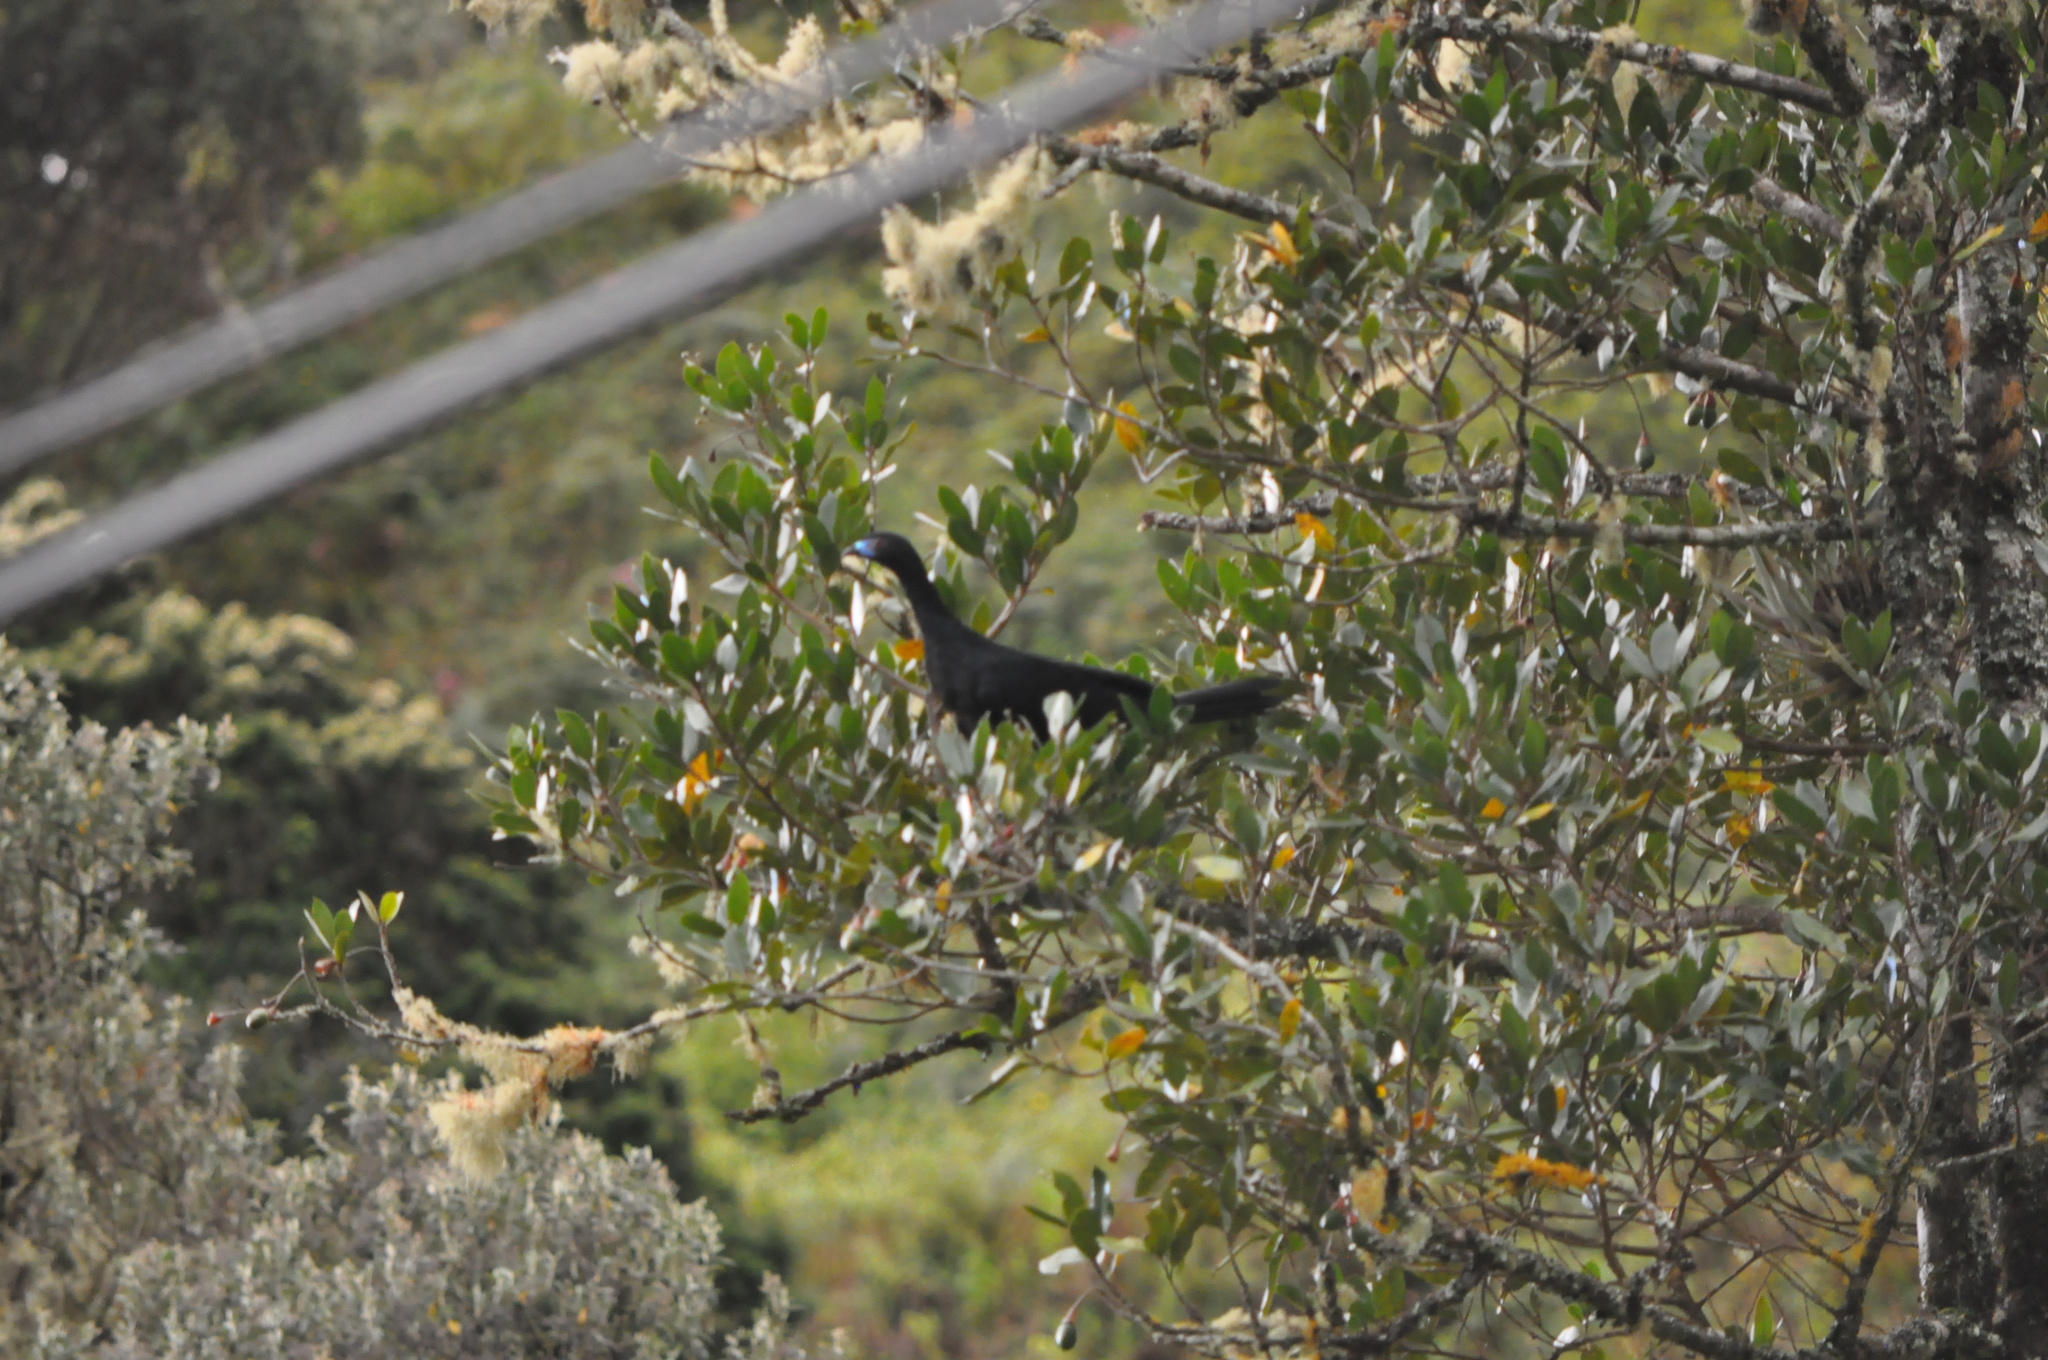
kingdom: Animalia
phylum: Chordata
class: Aves
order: Galliformes
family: Cracidae
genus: Chamaepetes
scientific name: Chamaepetes unicolor
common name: Black guan
